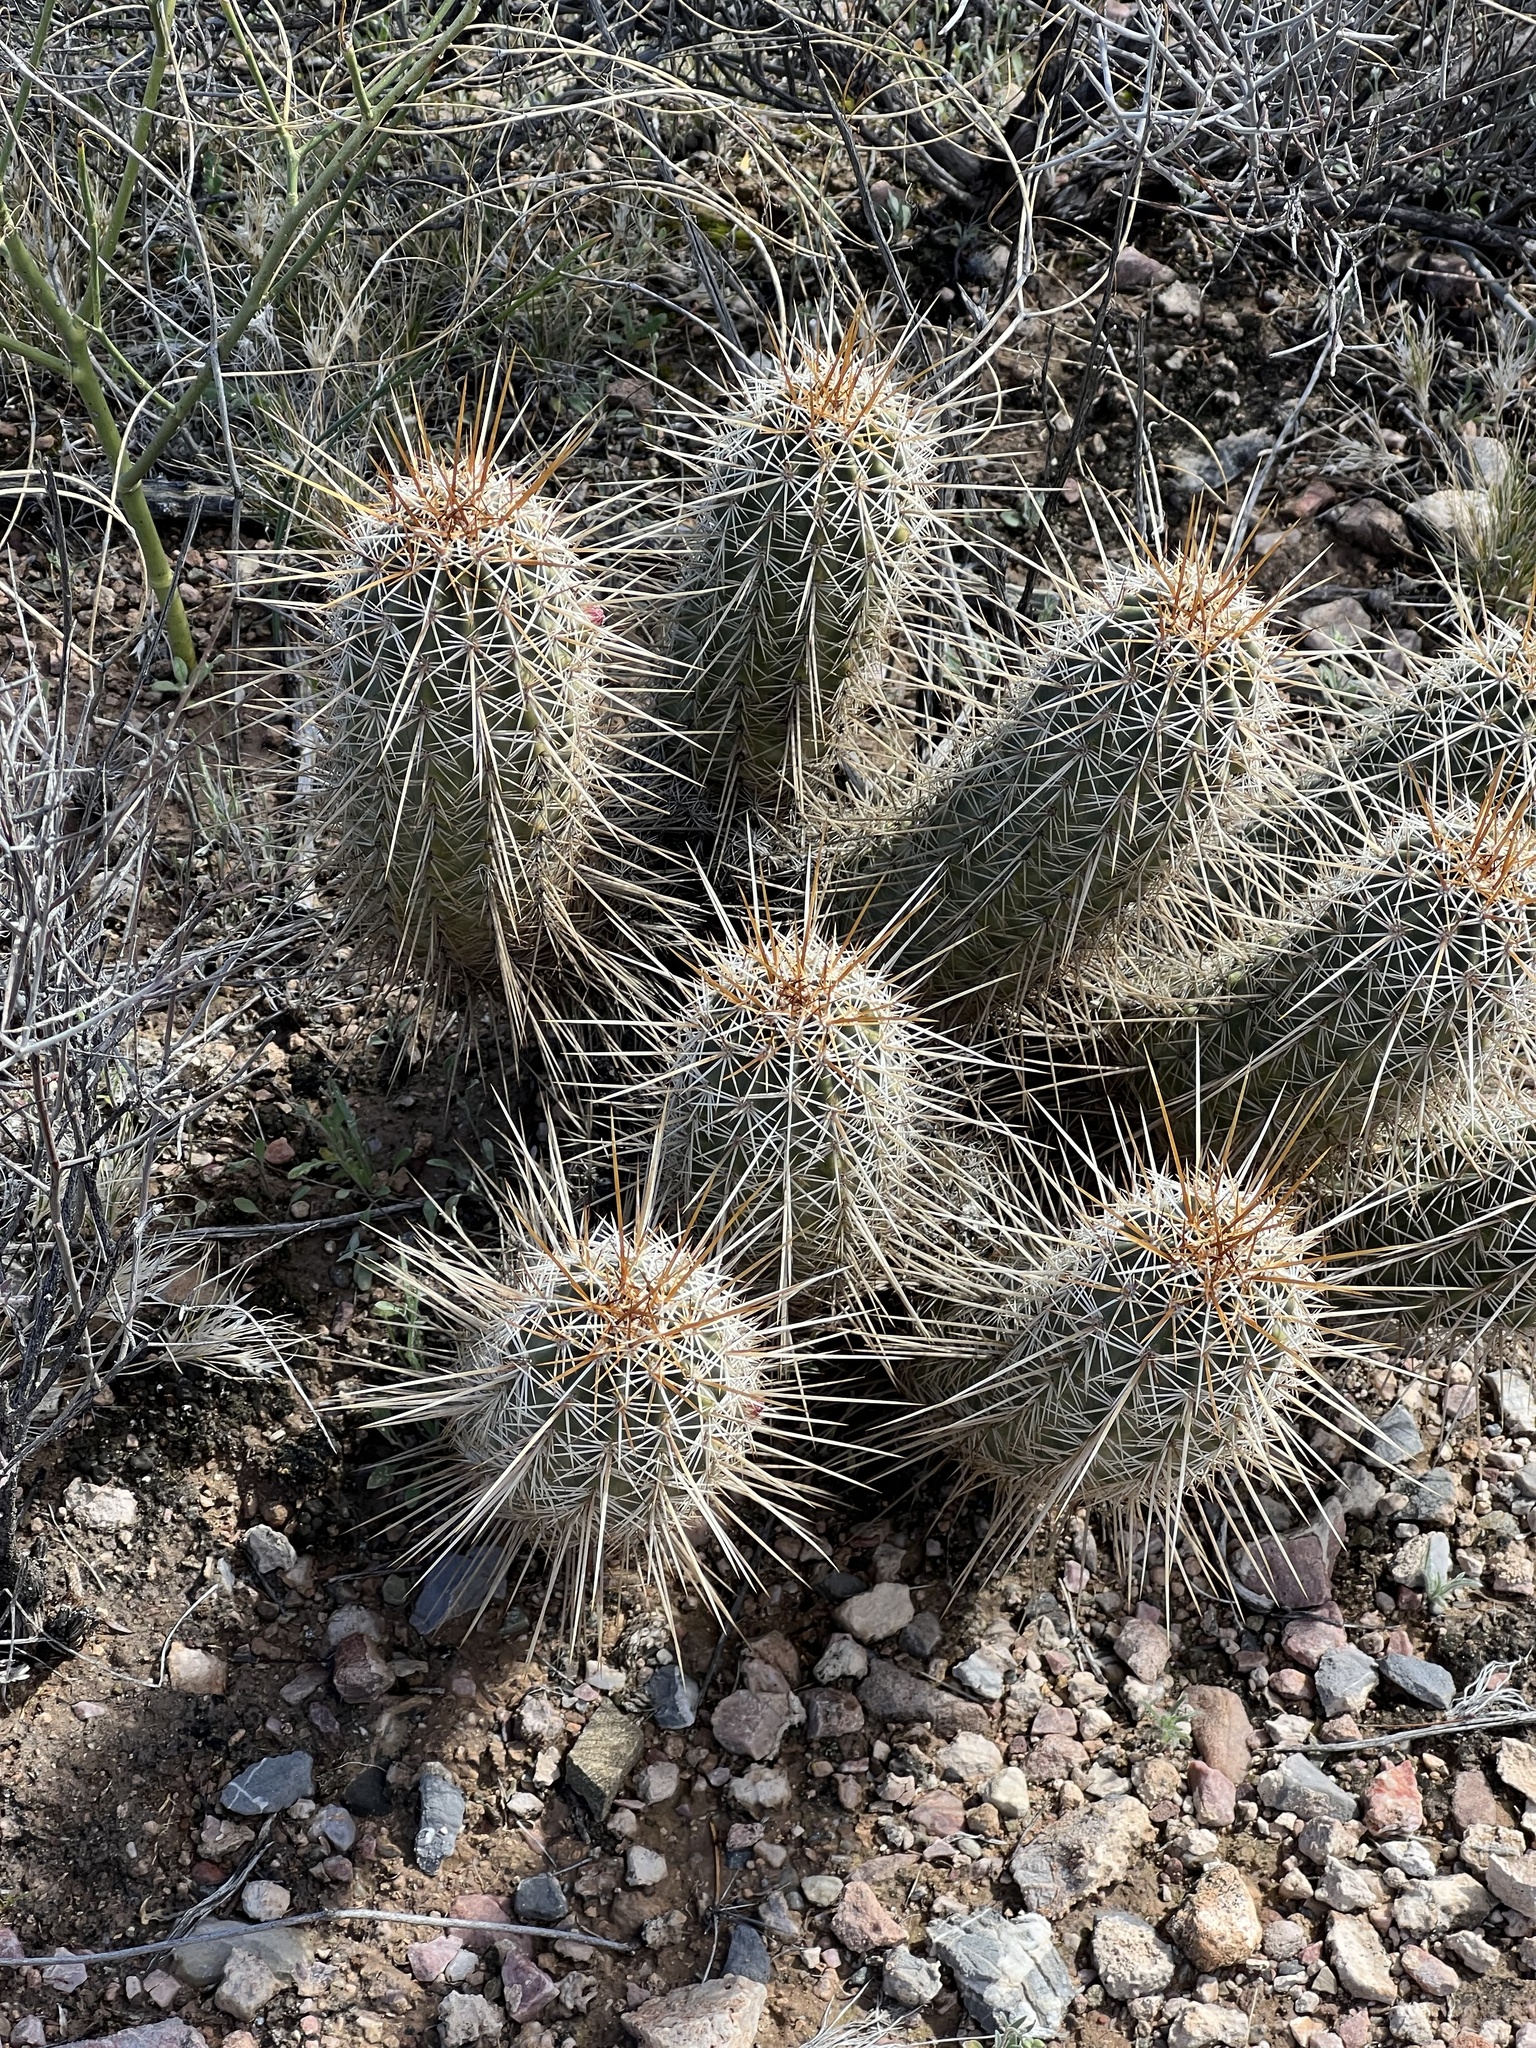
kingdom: Plantae
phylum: Tracheophyta
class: Magnoliopsida
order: Caryophyllales
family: Cactaceae
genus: Echinocereus
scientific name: Echinocereus fasciculatus
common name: Bundle hedgehog
